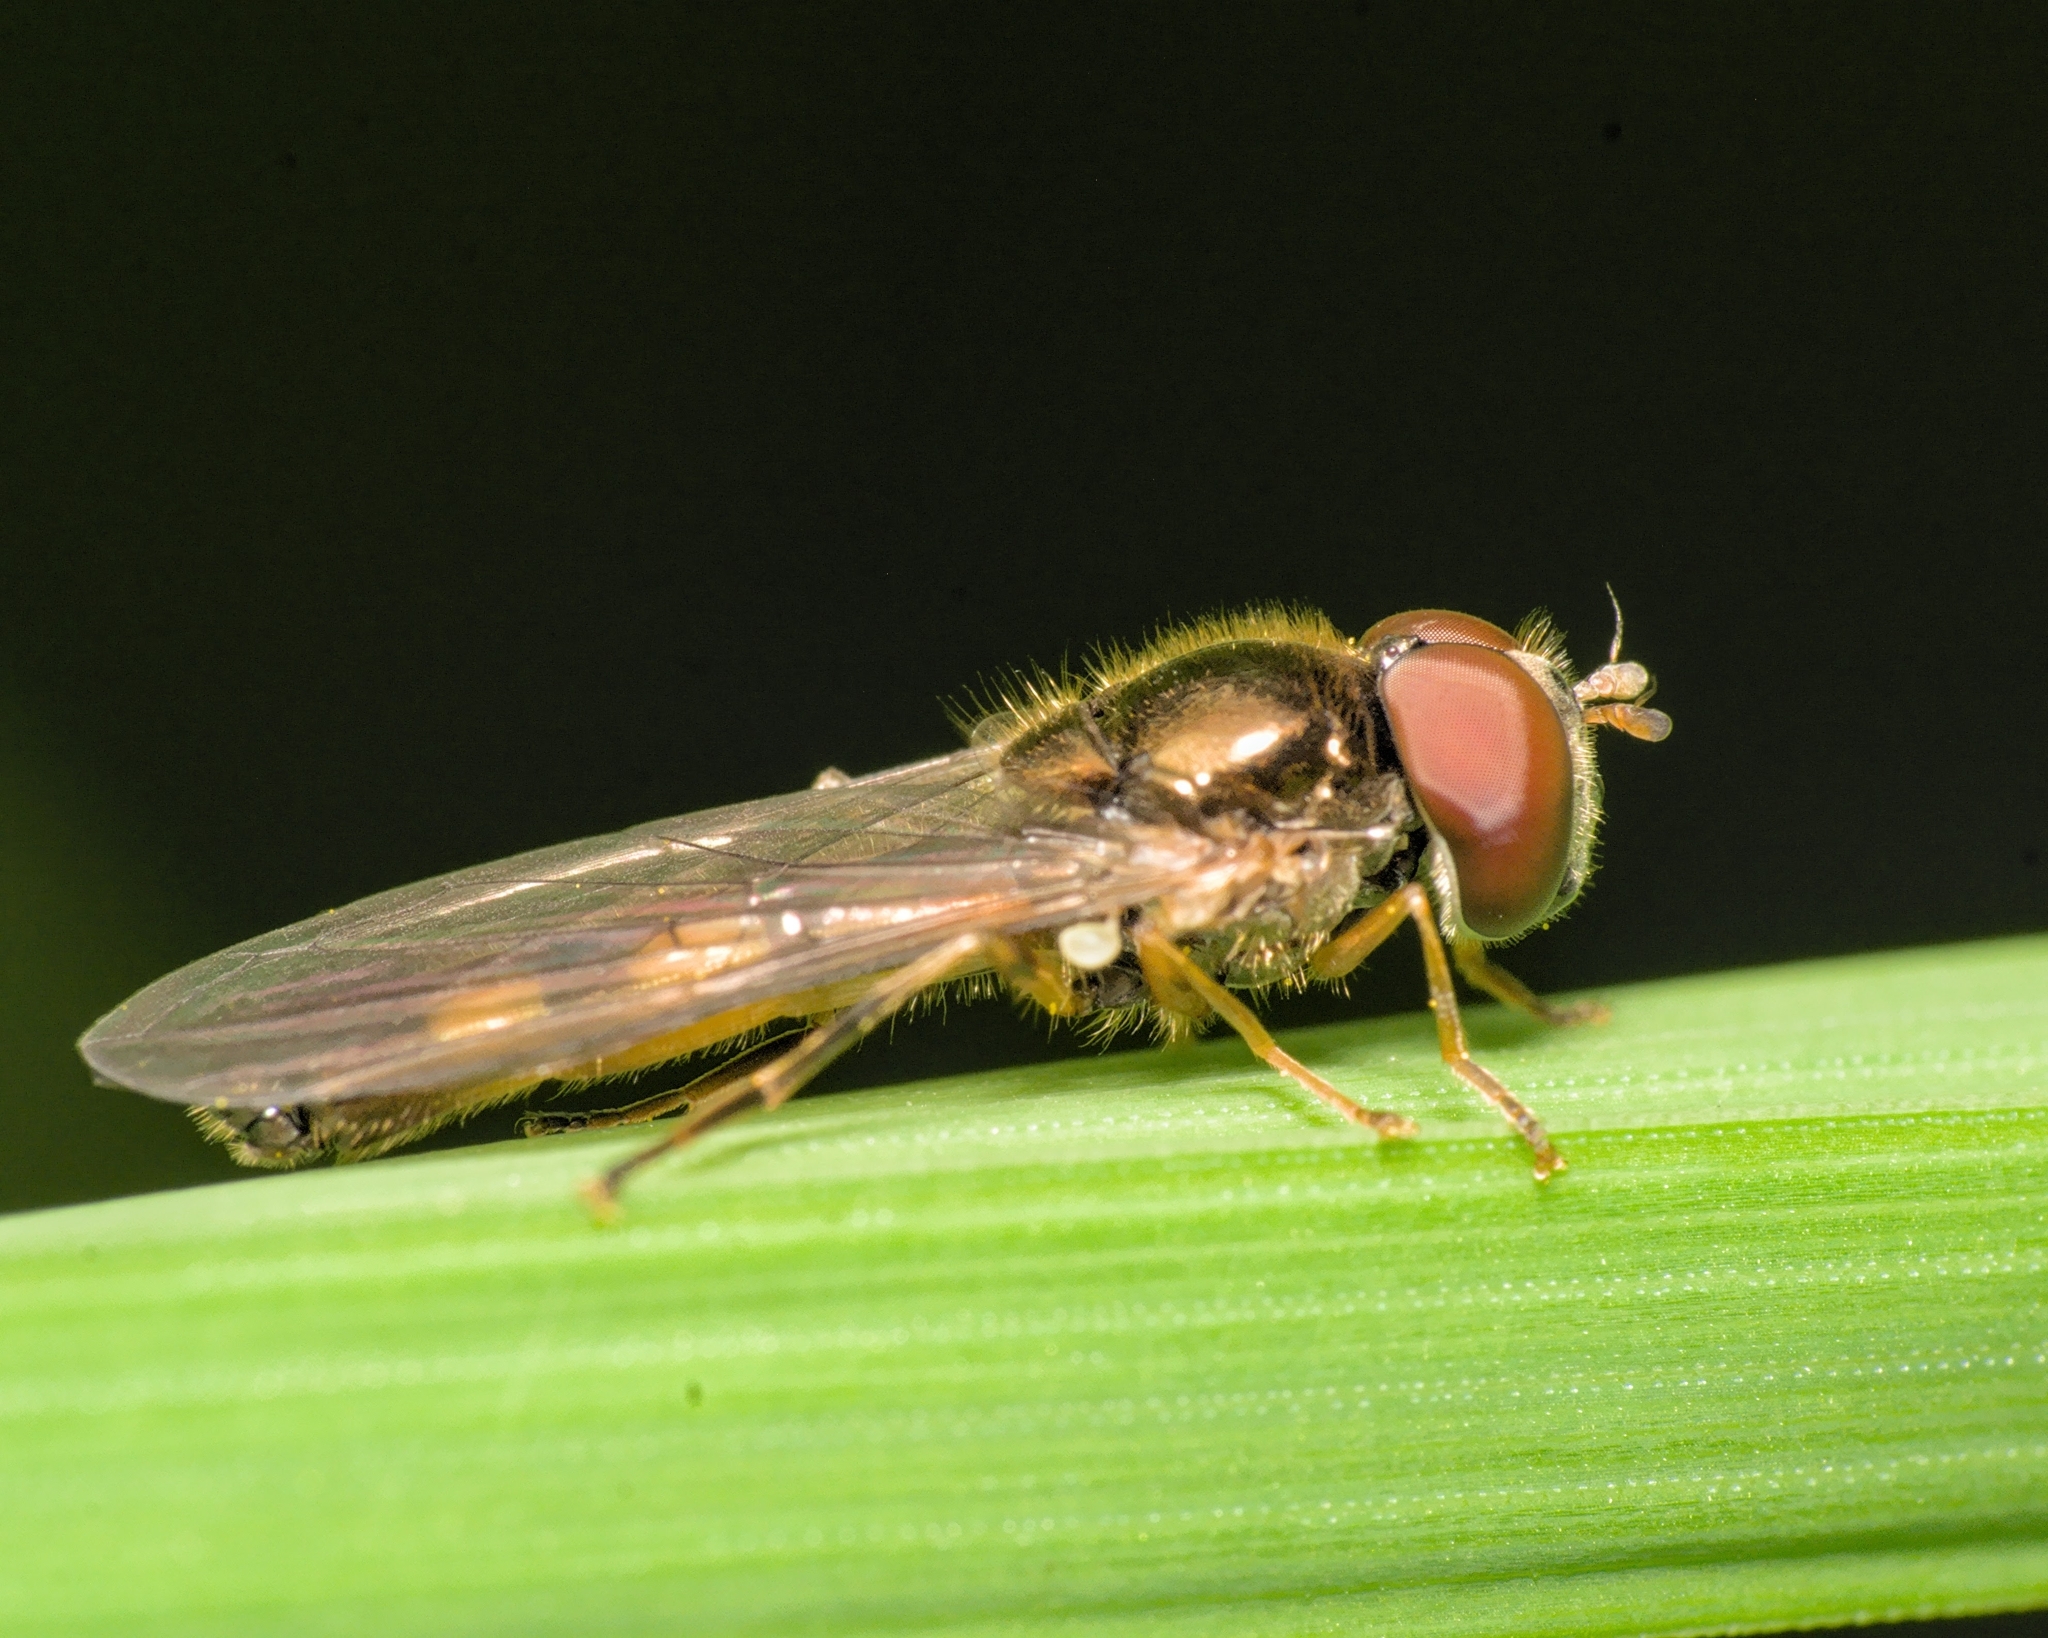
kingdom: Animalia
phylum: Arthropoda
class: Insecta
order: Diptera
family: Syrphidae
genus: Melanostoma
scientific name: Melanostoma scalare
